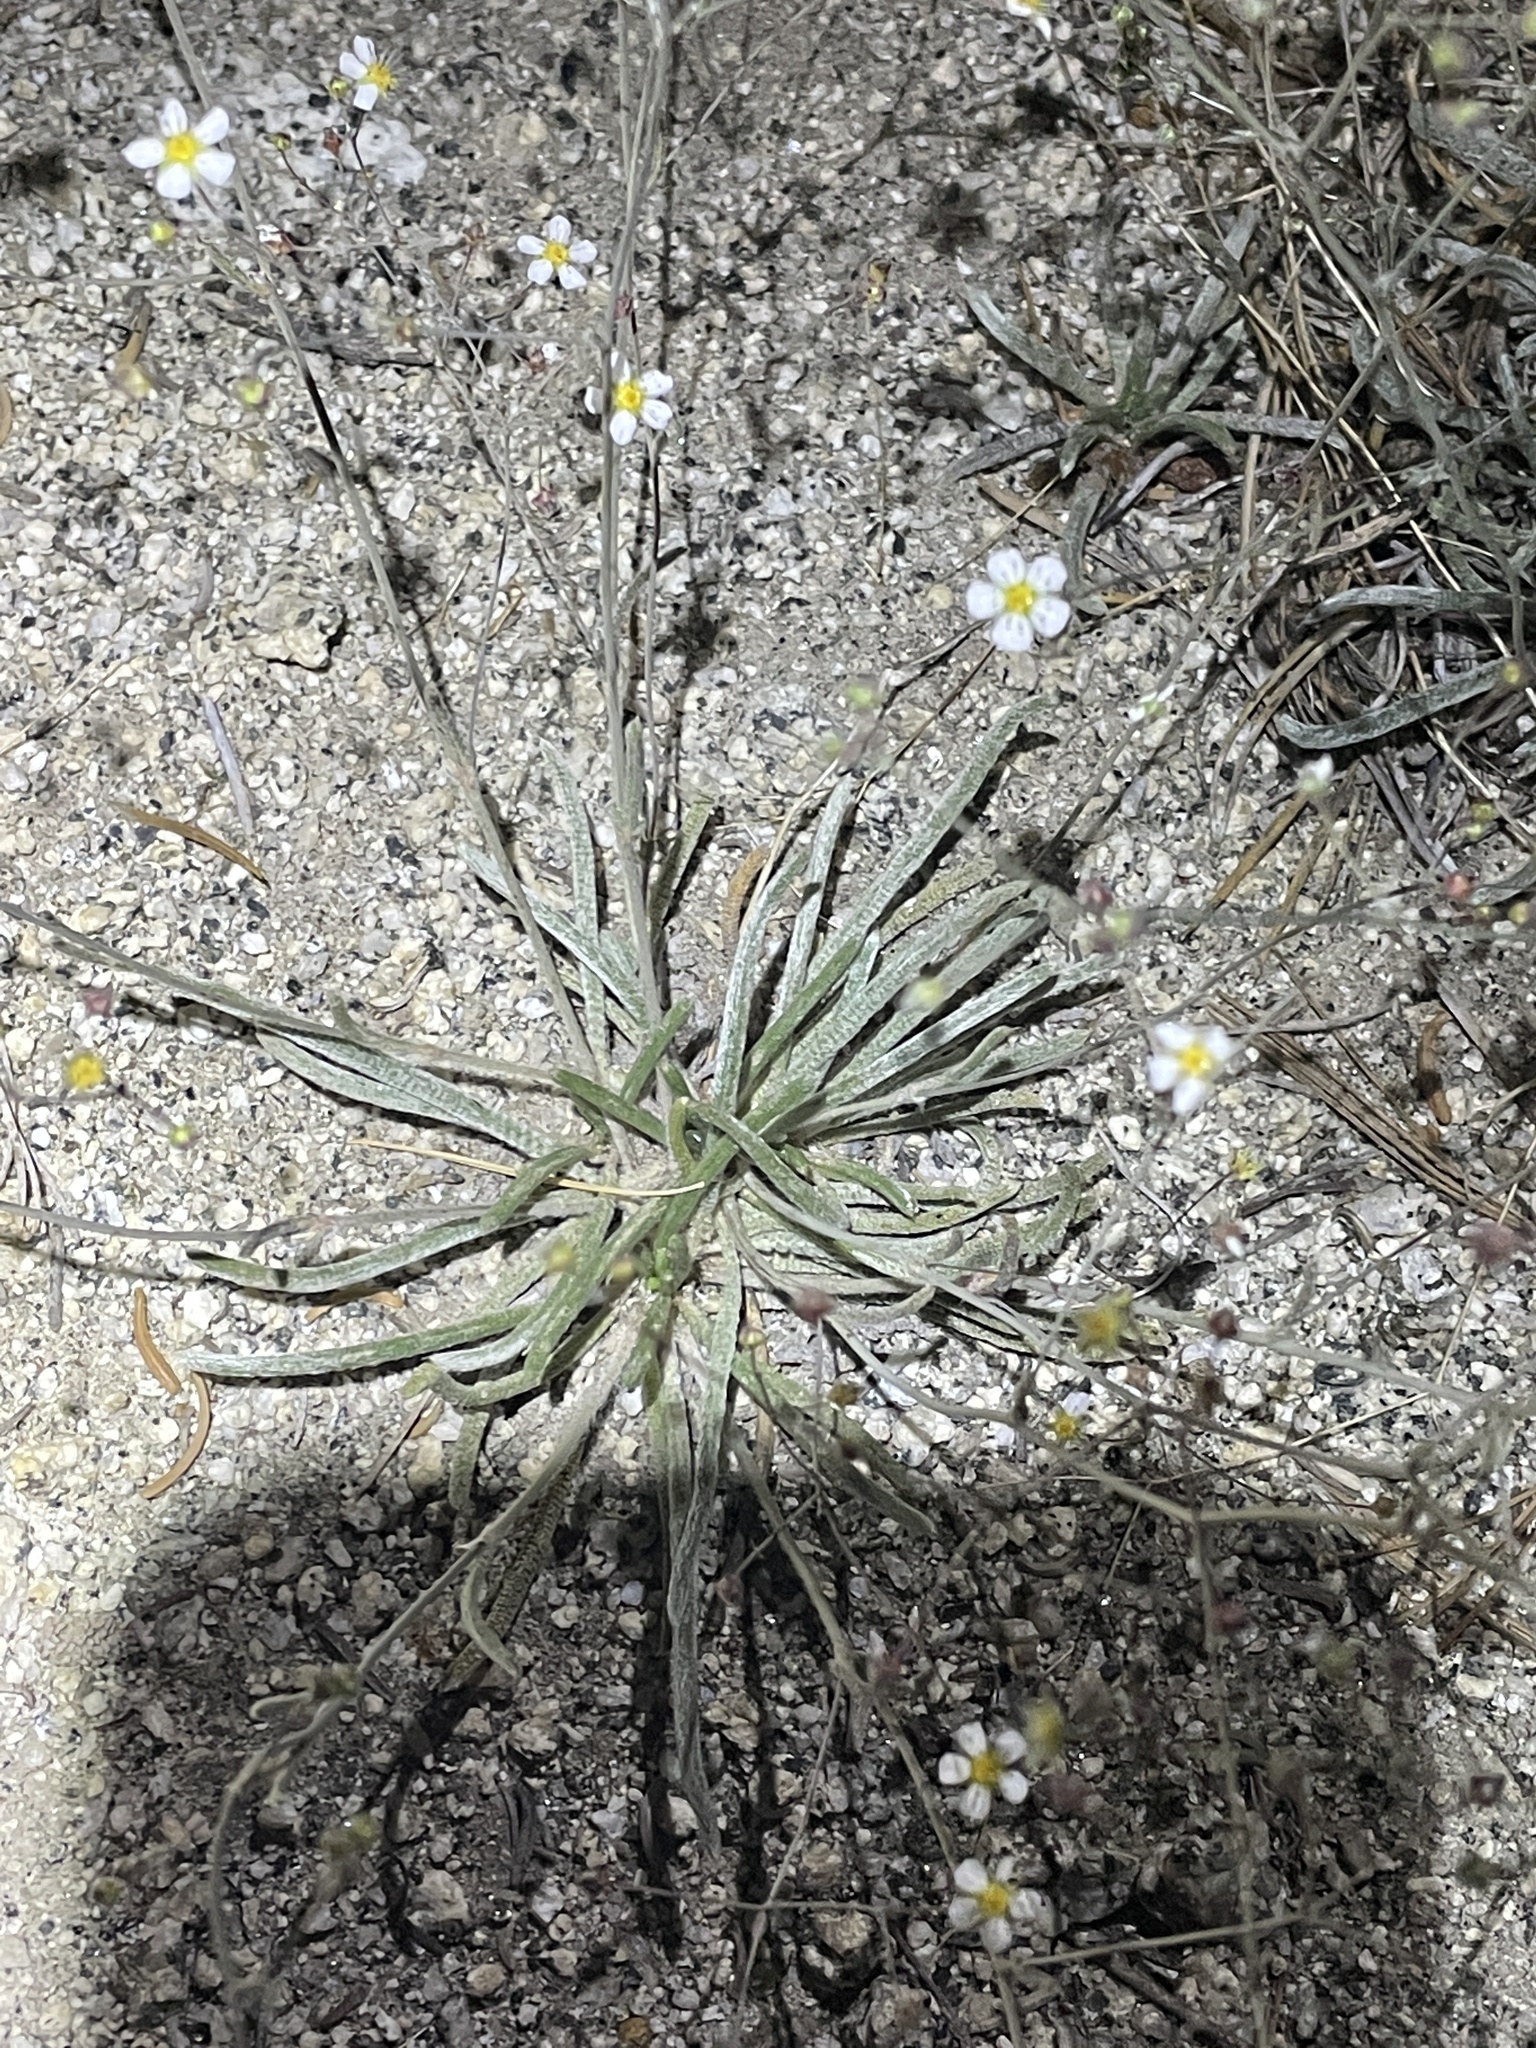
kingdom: Plantae
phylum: Tracheophyta
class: Magnoliopsida
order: Rosales
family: Rosaceae
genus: Potentilla
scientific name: Potentilla santolinoides
